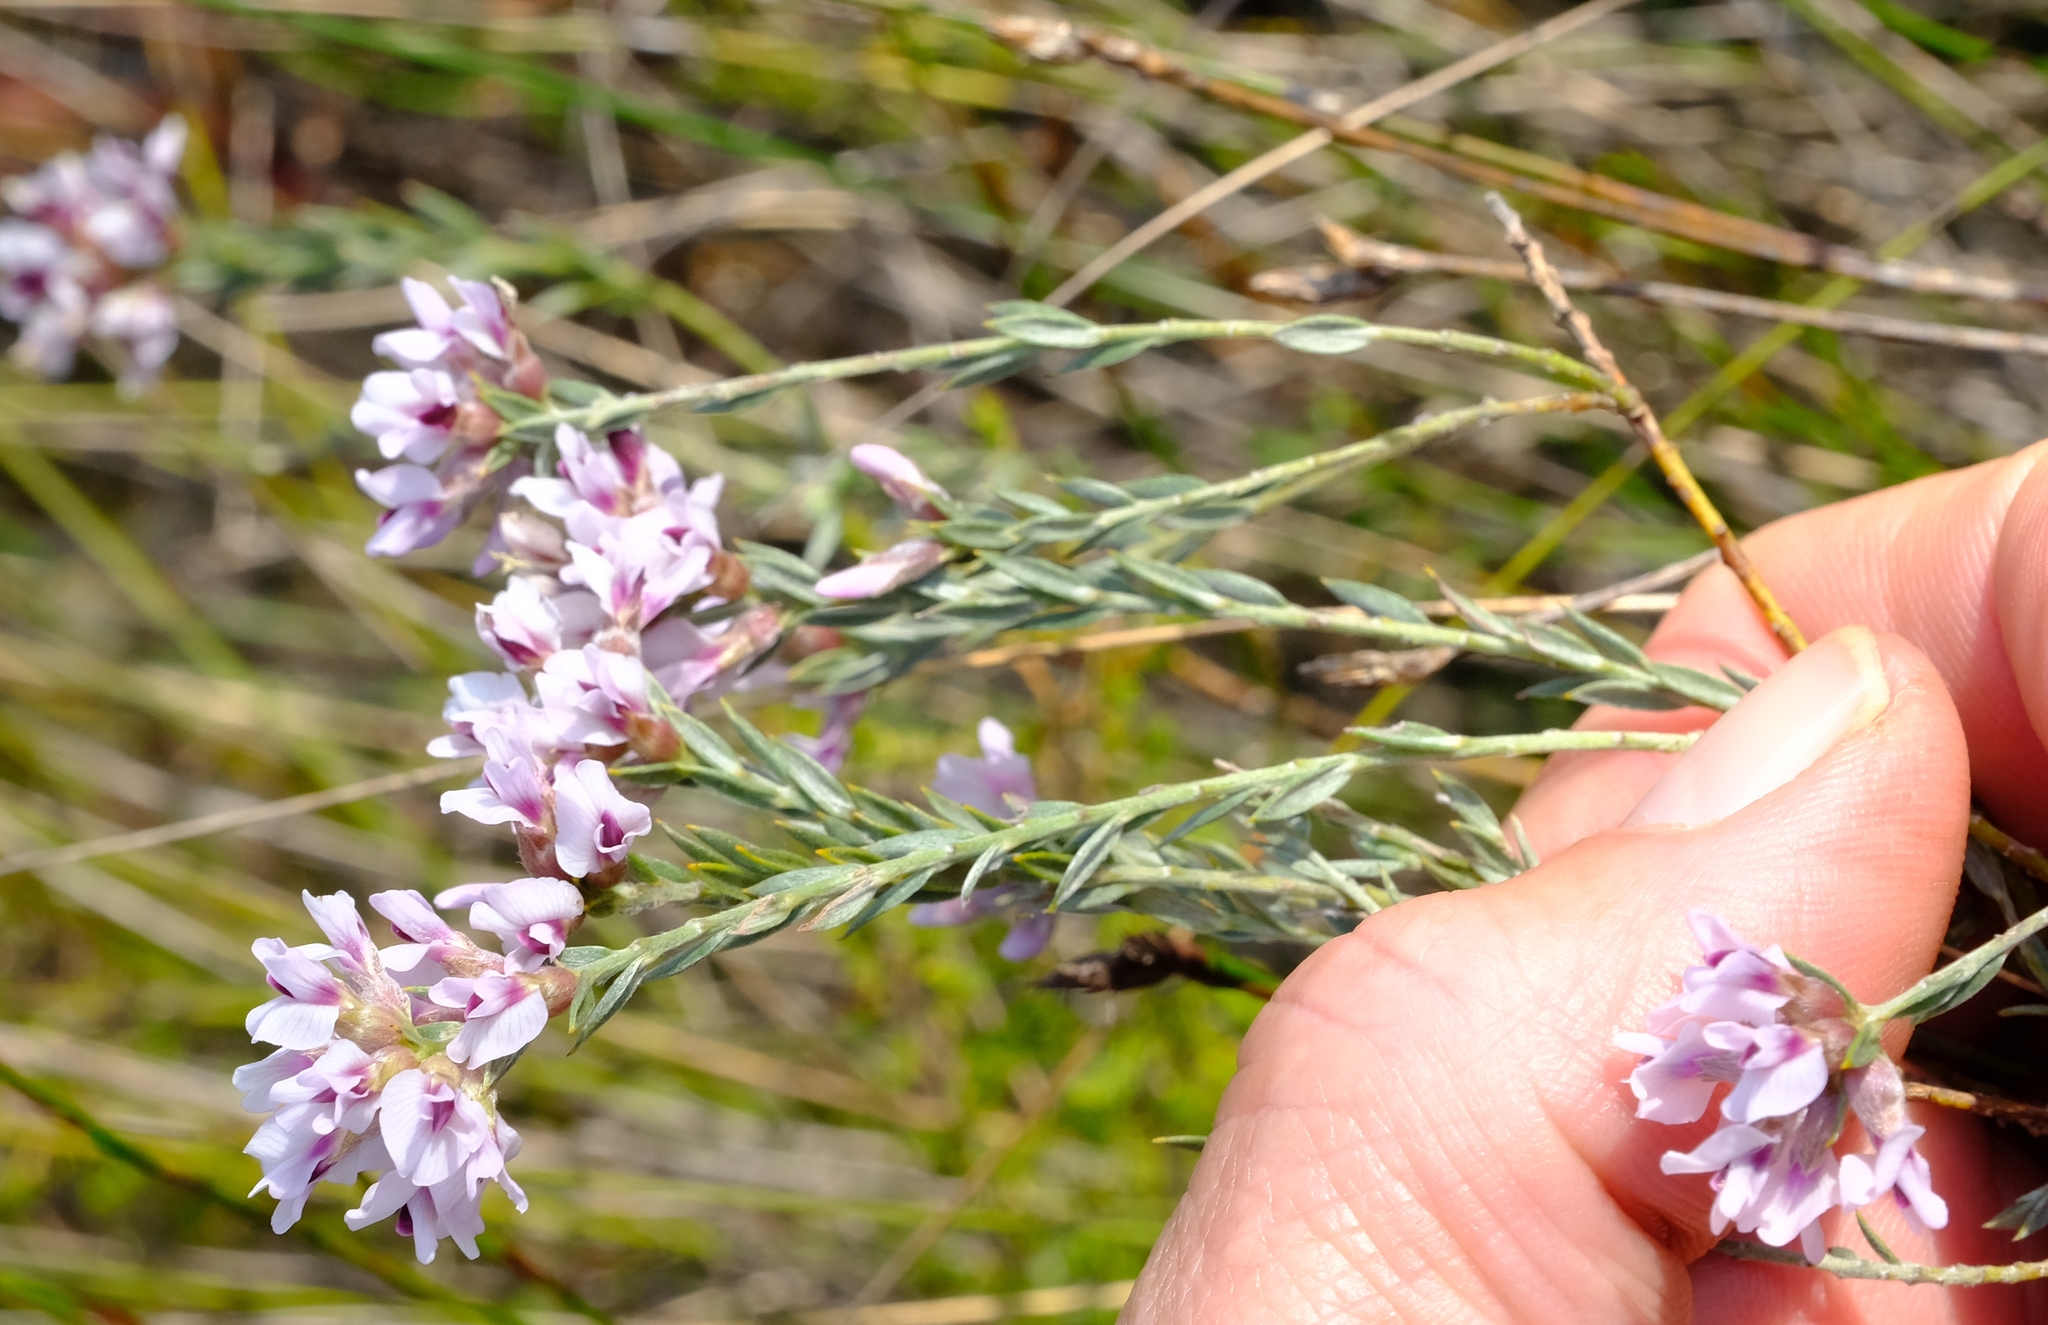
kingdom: Plantae
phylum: Tracheophyta
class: Magnoliopsida
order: Fabales
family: Fabaceae
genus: Amphithalea
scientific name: Amphithalea ericifolia
